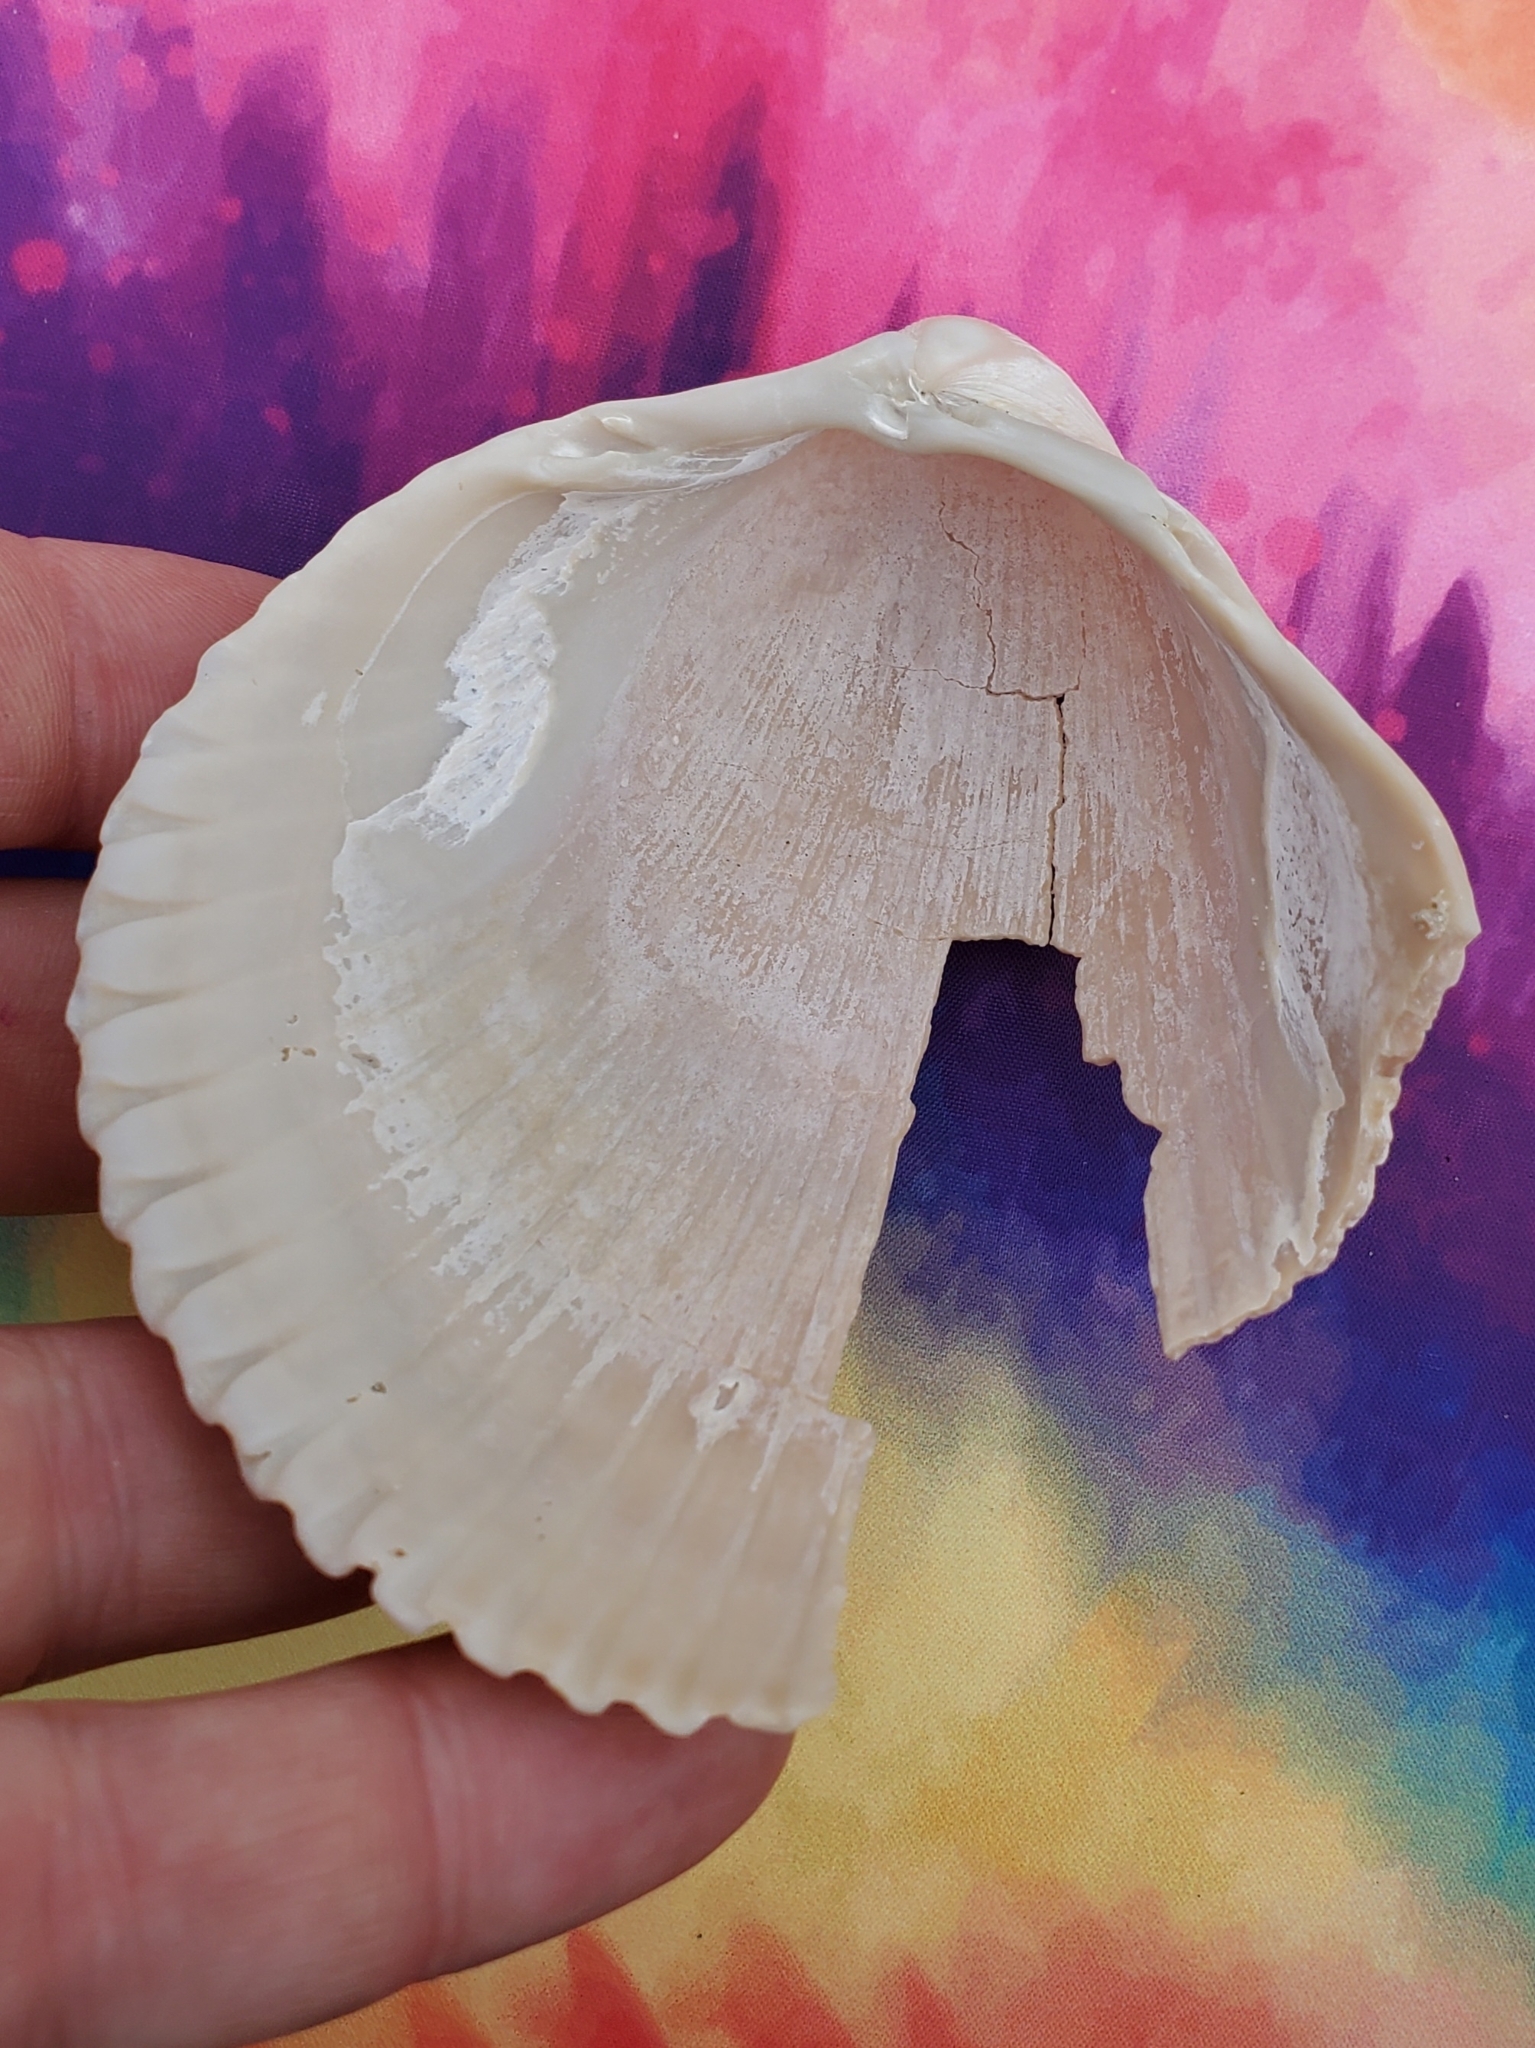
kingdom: Animalia
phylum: Mollusca
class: Bivalvia
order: Cardiida
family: Cardiidae
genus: Dinocardium
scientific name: Dinocardium robustum
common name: Atlantic giant cockle
